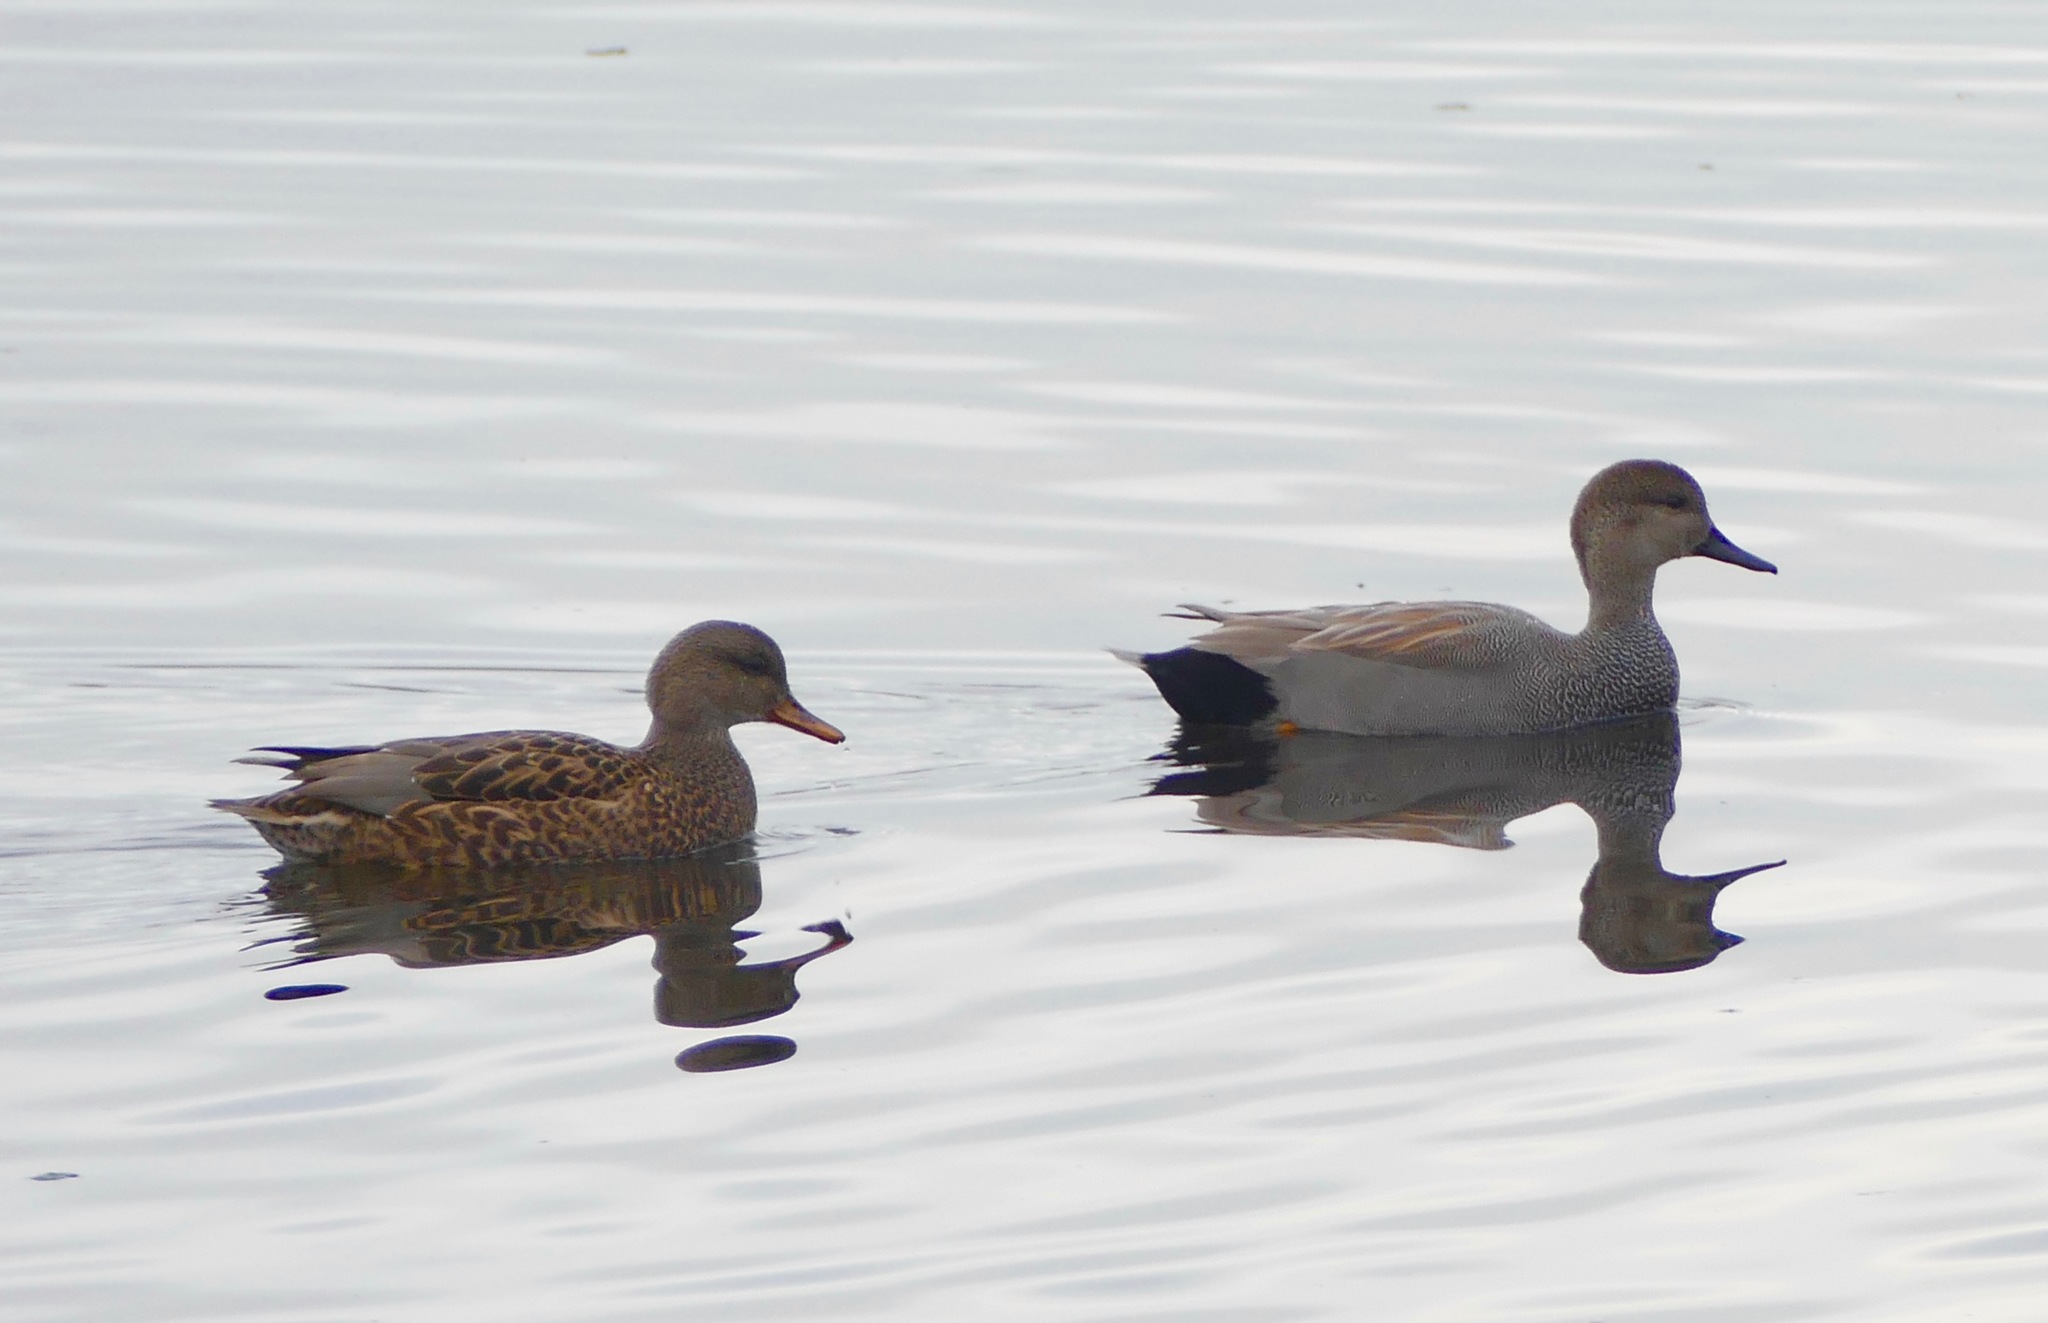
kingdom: Animalia
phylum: Chordata
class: Aves
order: Anseriformes
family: Anatidae
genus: Mareca
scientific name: Mareca strepera
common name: Gadwall
